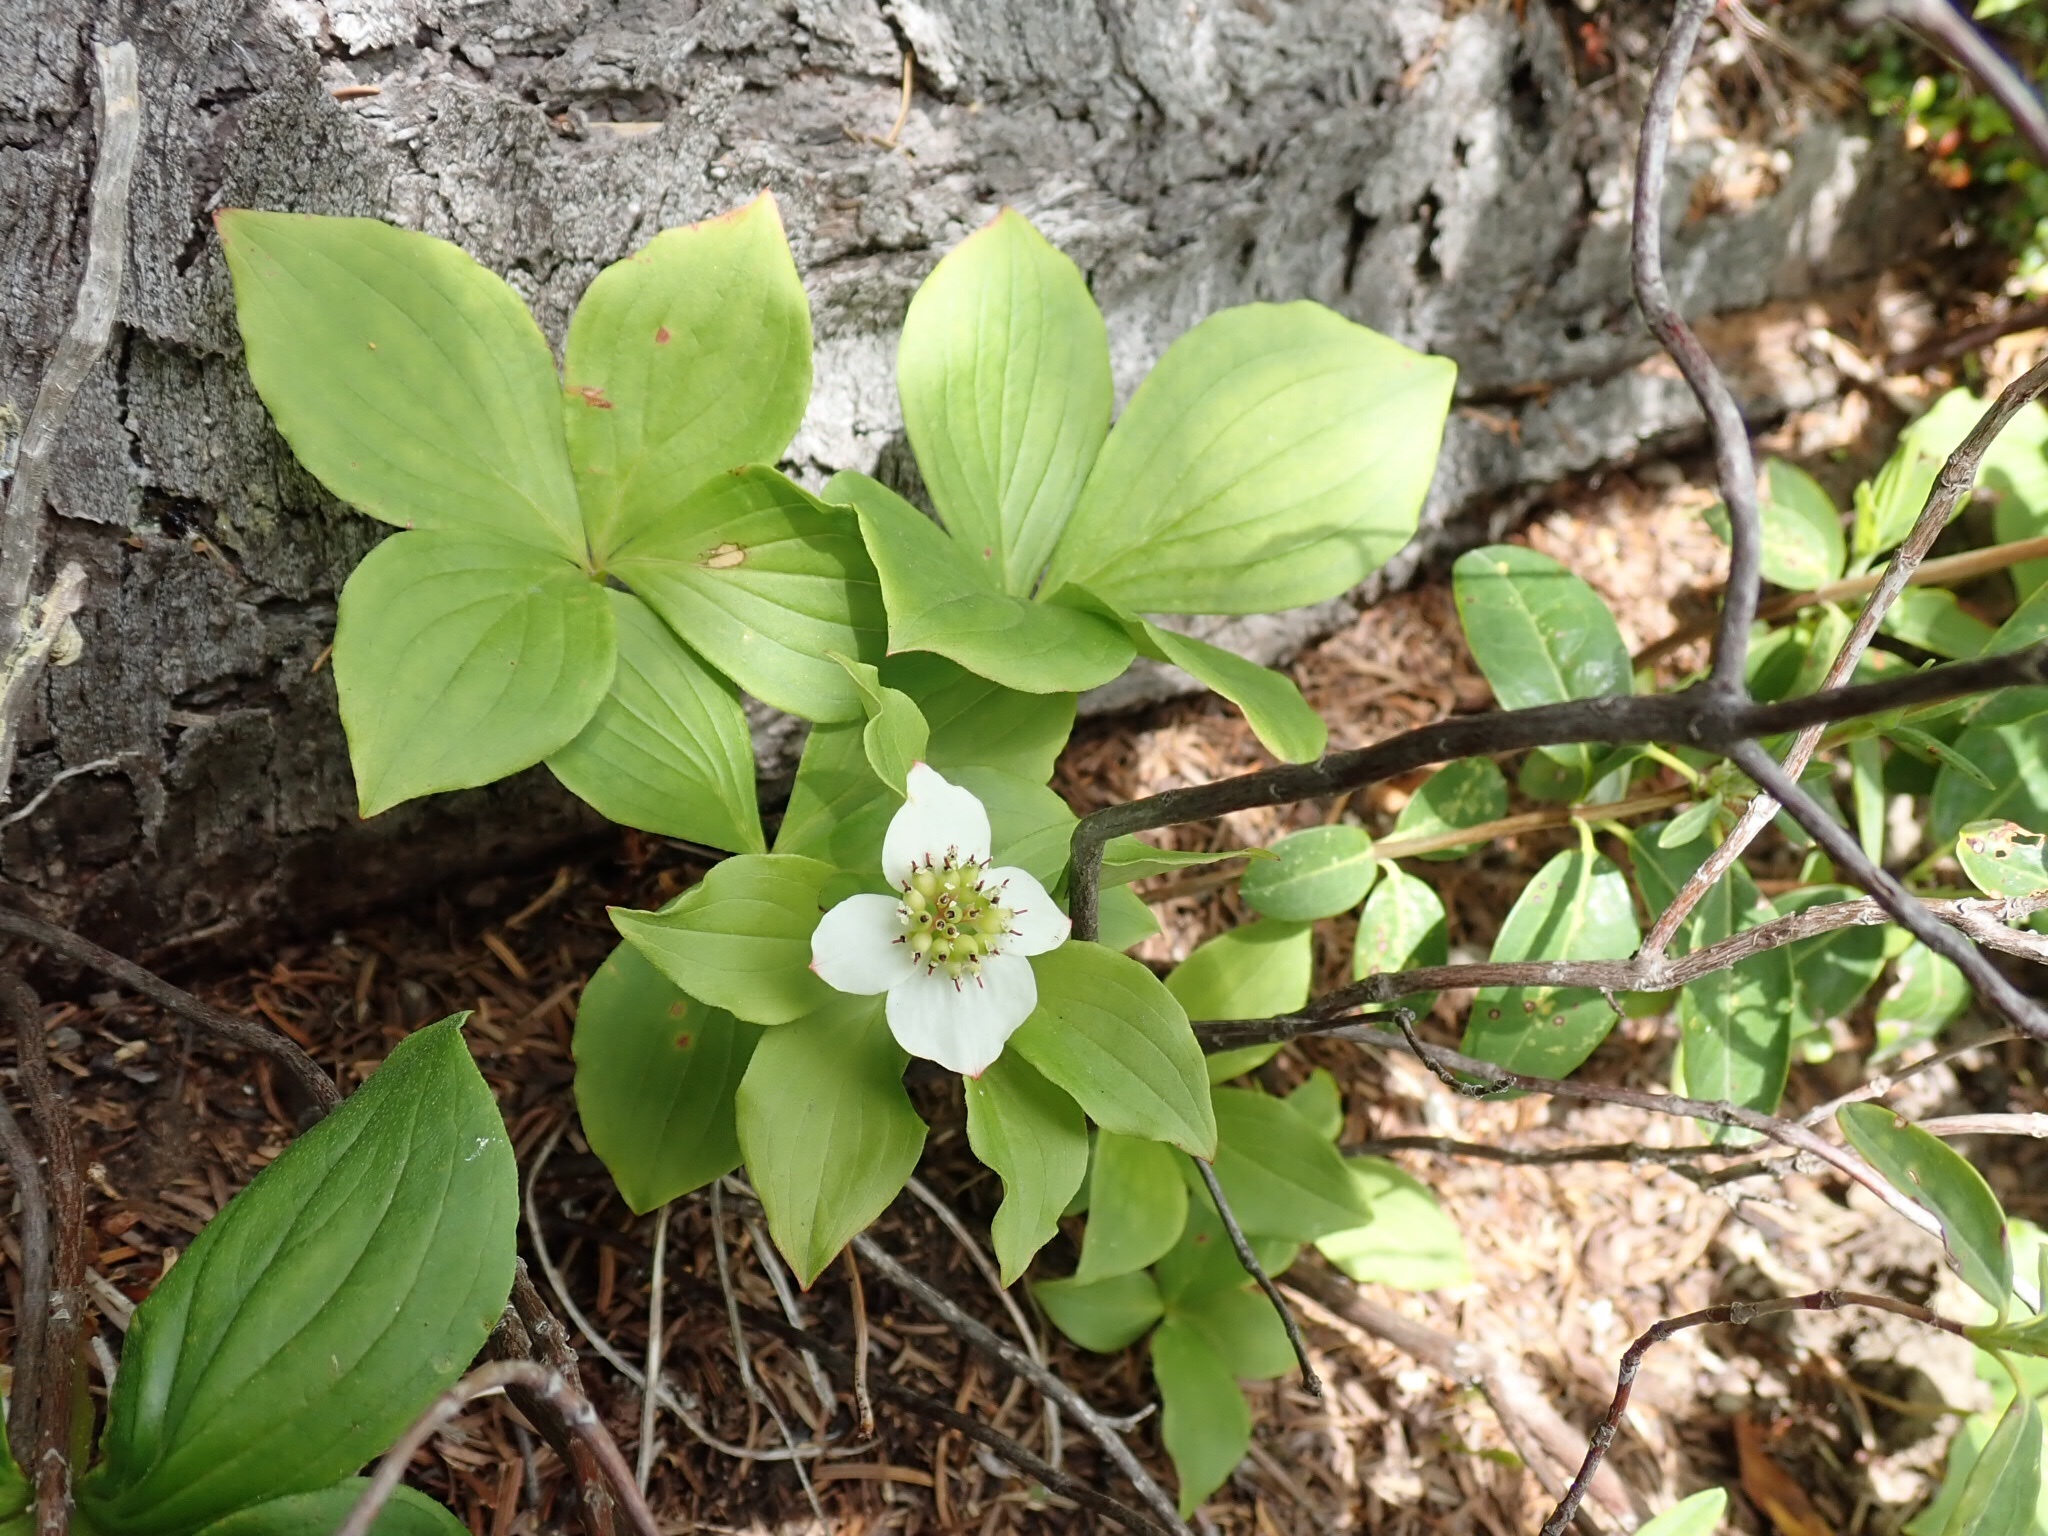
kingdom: Plantae
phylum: Tracheophyta
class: Magnoliopsida
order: Cornales
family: Cornaceae
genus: Cornus
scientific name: Cornus canadensis
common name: Creeping dogwood
